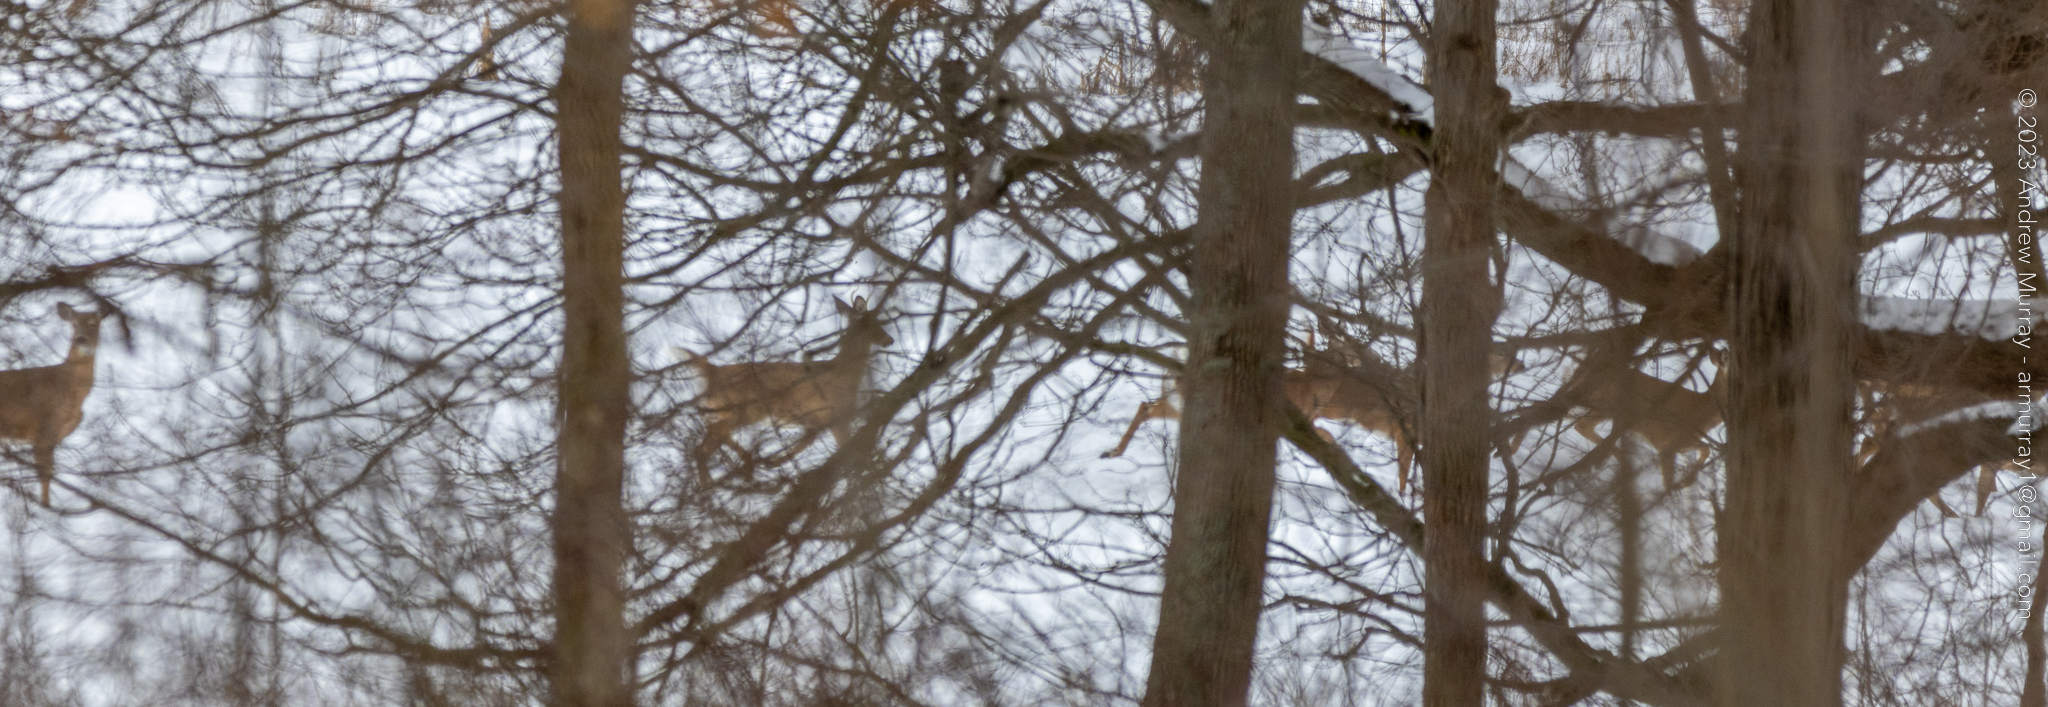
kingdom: Animalia
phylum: Chordata
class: Mammalia
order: Artiodactyla
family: Cervidae
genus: Odocoileus
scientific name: Odocoileus virginianus
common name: White-tailed deer
